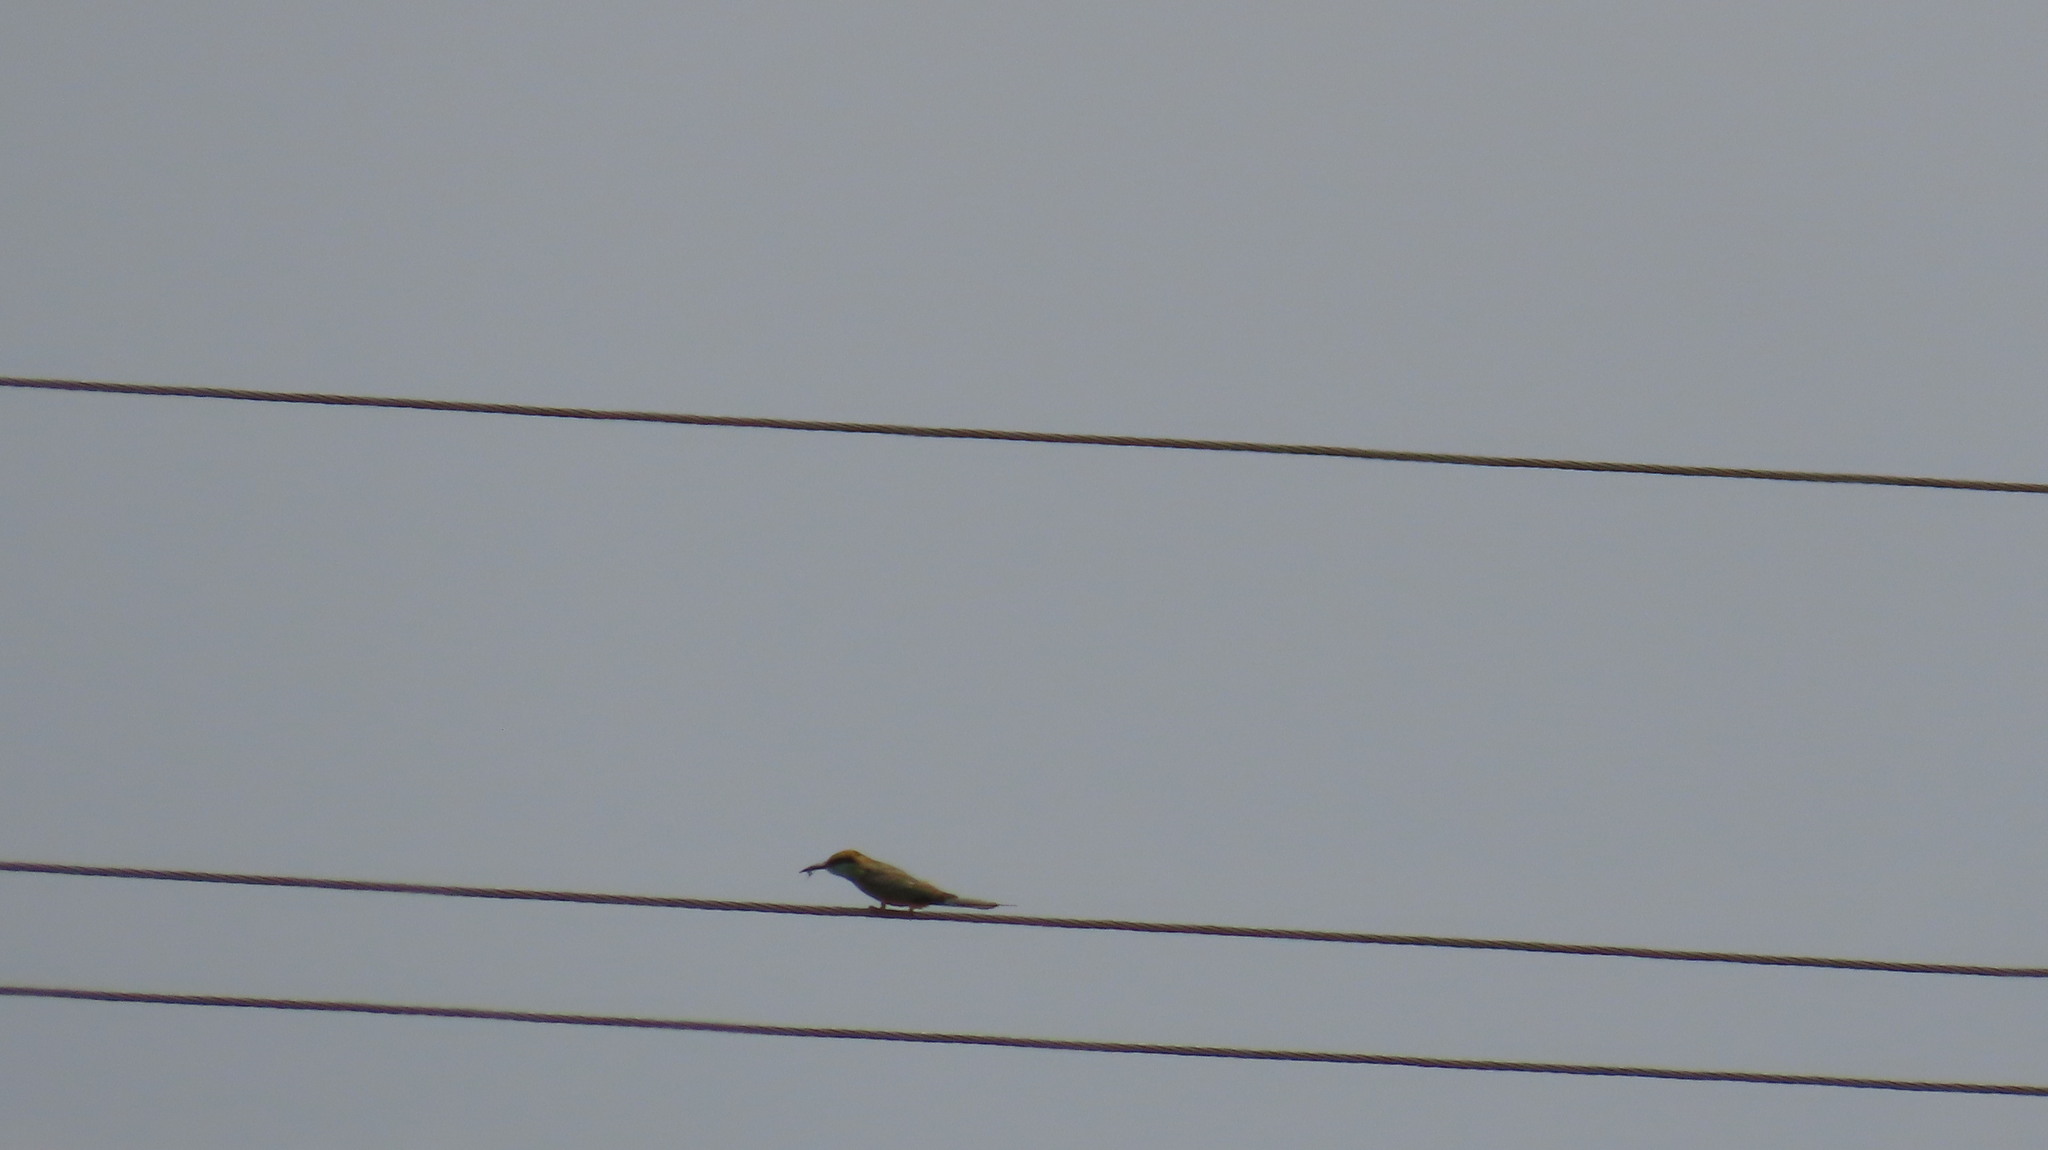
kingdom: Animalia
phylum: Chordata
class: Aves
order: Coraciiformes
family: Meropidae
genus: Merops
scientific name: Merops orientalis
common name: Green bee-eater
